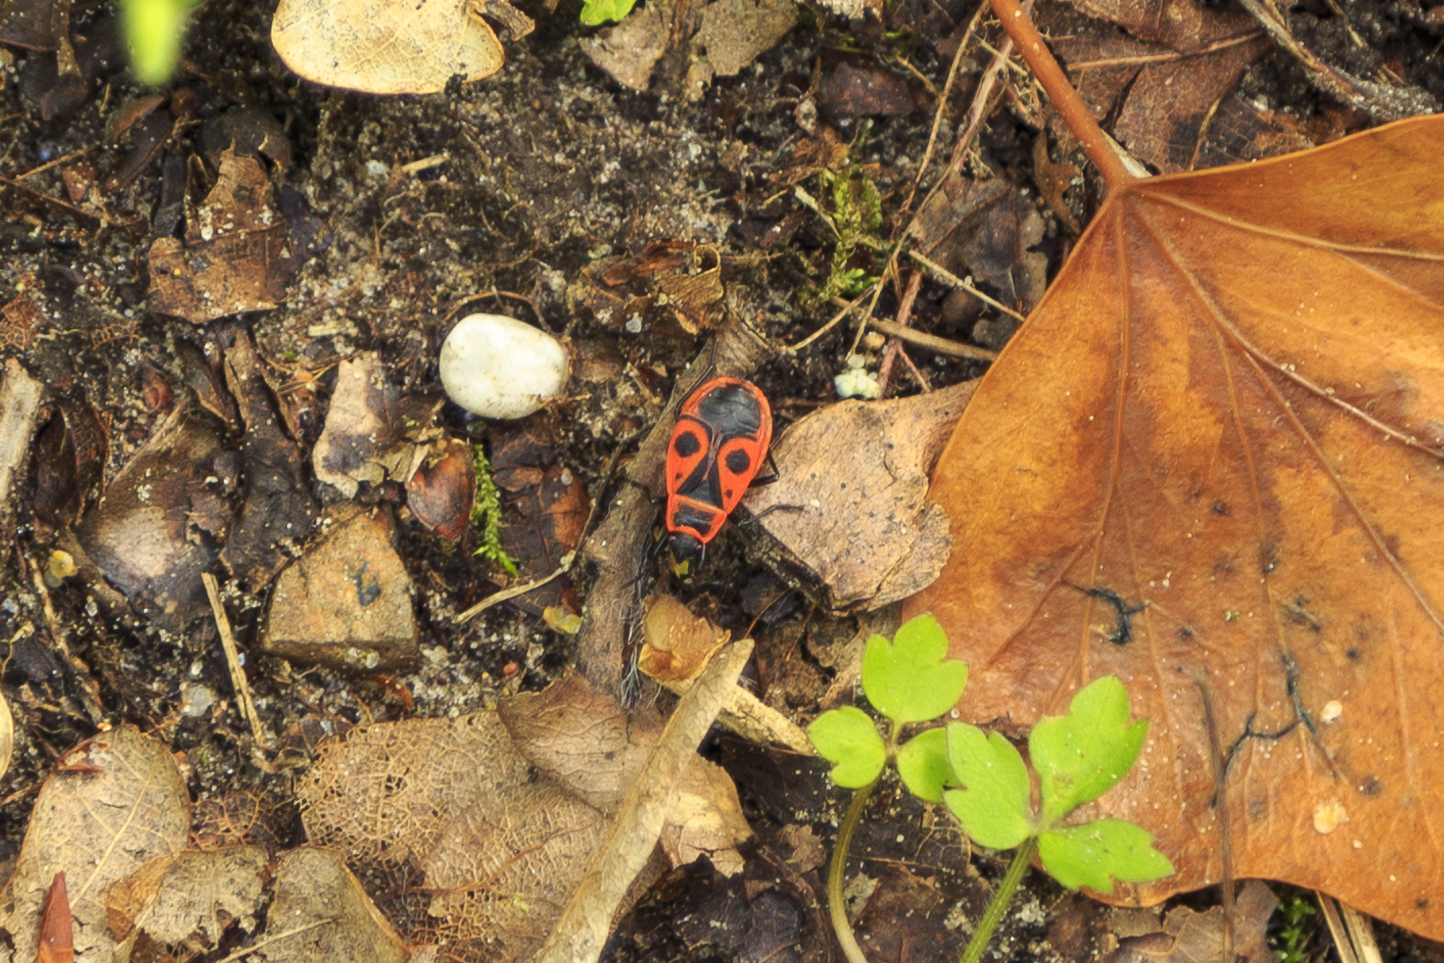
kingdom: Animalia
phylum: Arthropoda
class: Insecta
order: Hemiptera
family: Pyrrhocoridae
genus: Pyrrhocoris
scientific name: Pyrrhocoris apterus
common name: Firebug
